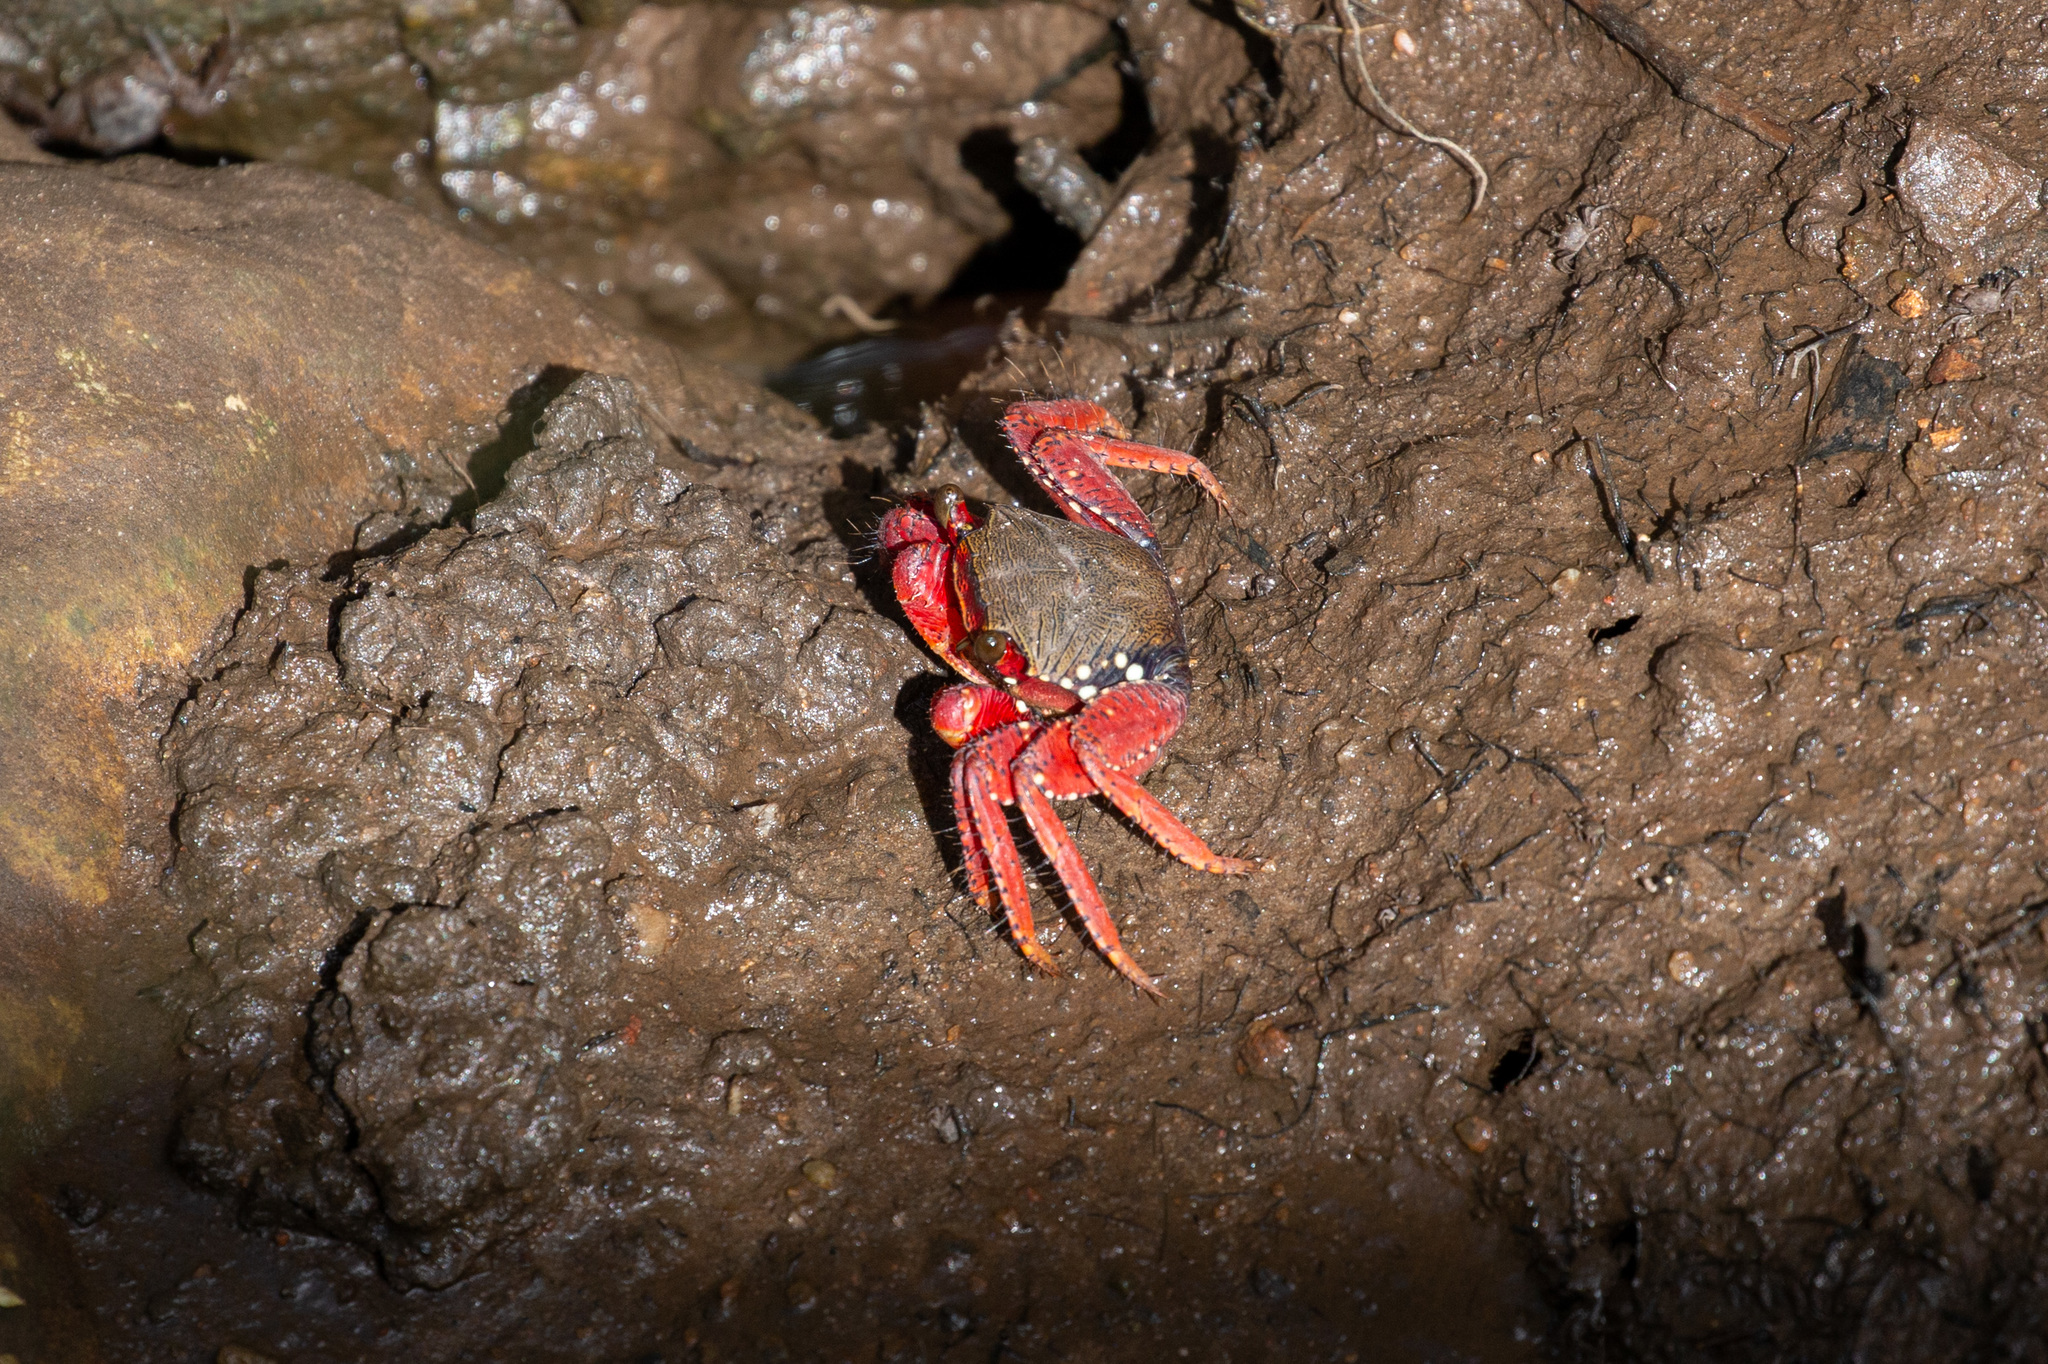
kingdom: Animalia
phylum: Arthropoda
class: Malacostraca
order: Decapoda
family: Grapsidae
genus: Goniopsis
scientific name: Goniopsis cruentata
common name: Mangrove crab
